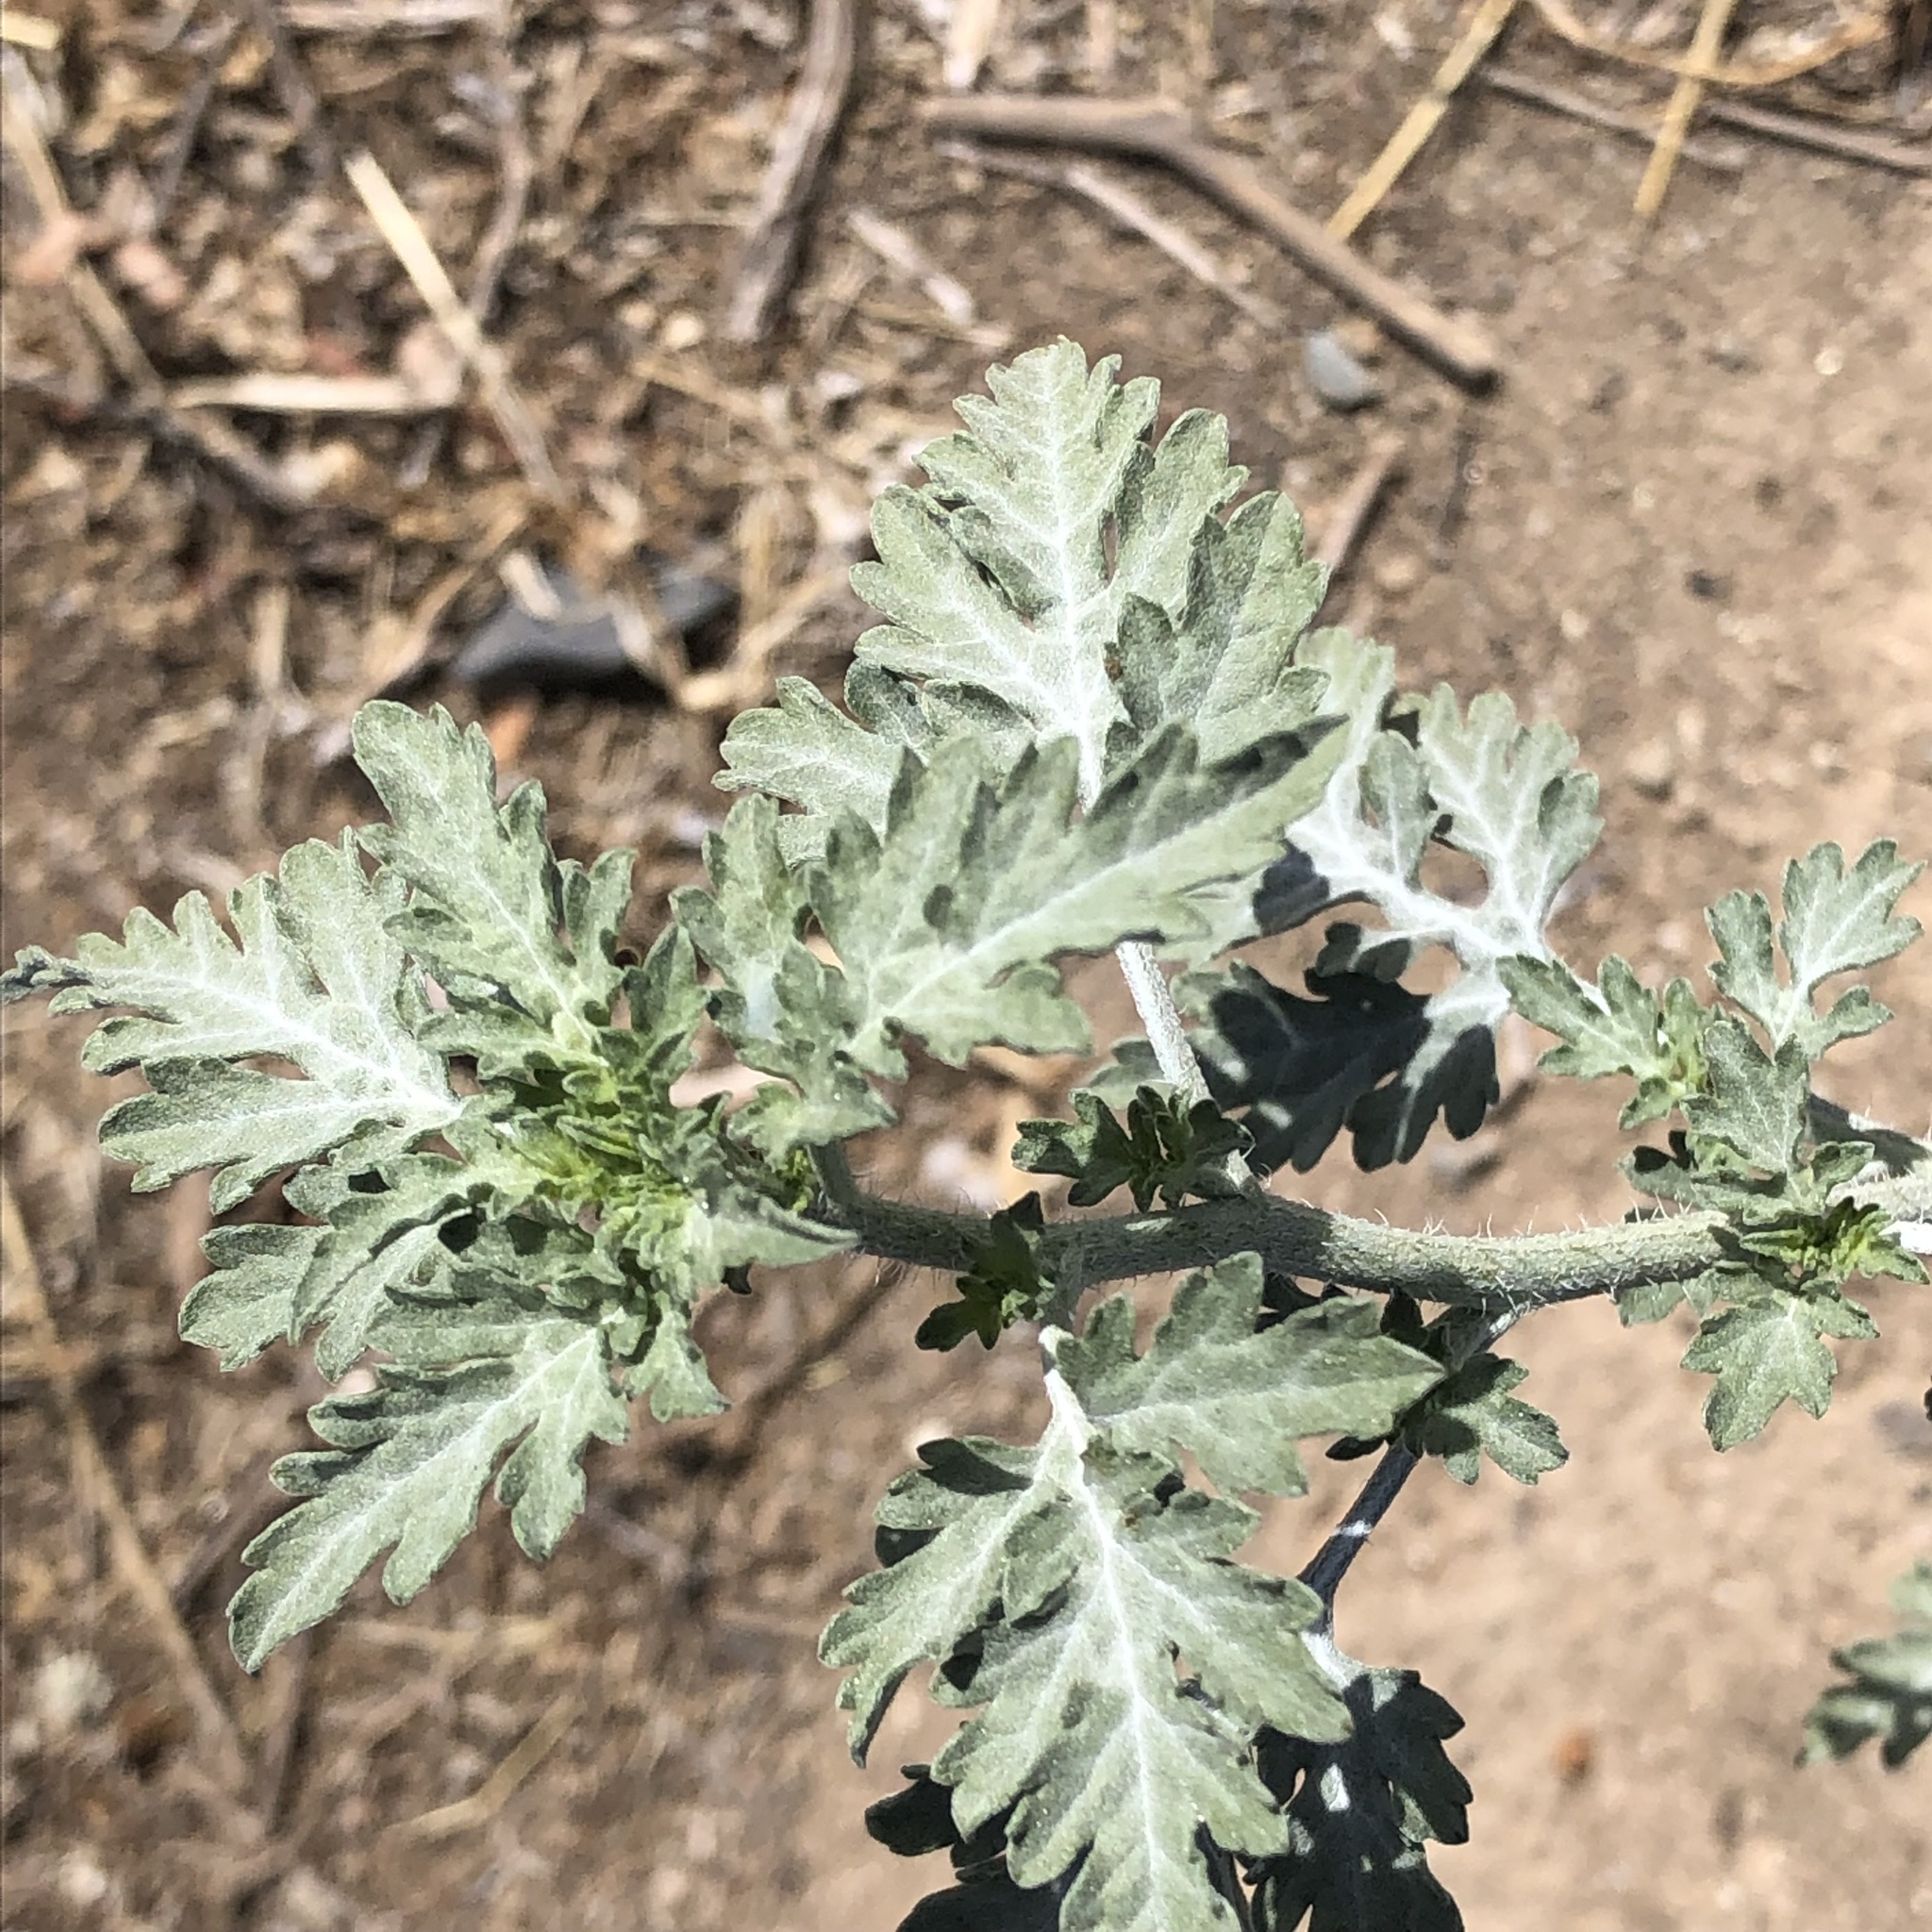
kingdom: Plantae
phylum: Tracheophyta
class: Magnoliopsida
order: Asterales
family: Asteraceae
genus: Ambrosia
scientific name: Ambrosia acanthicarpa
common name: Hooker's bur ragweed
